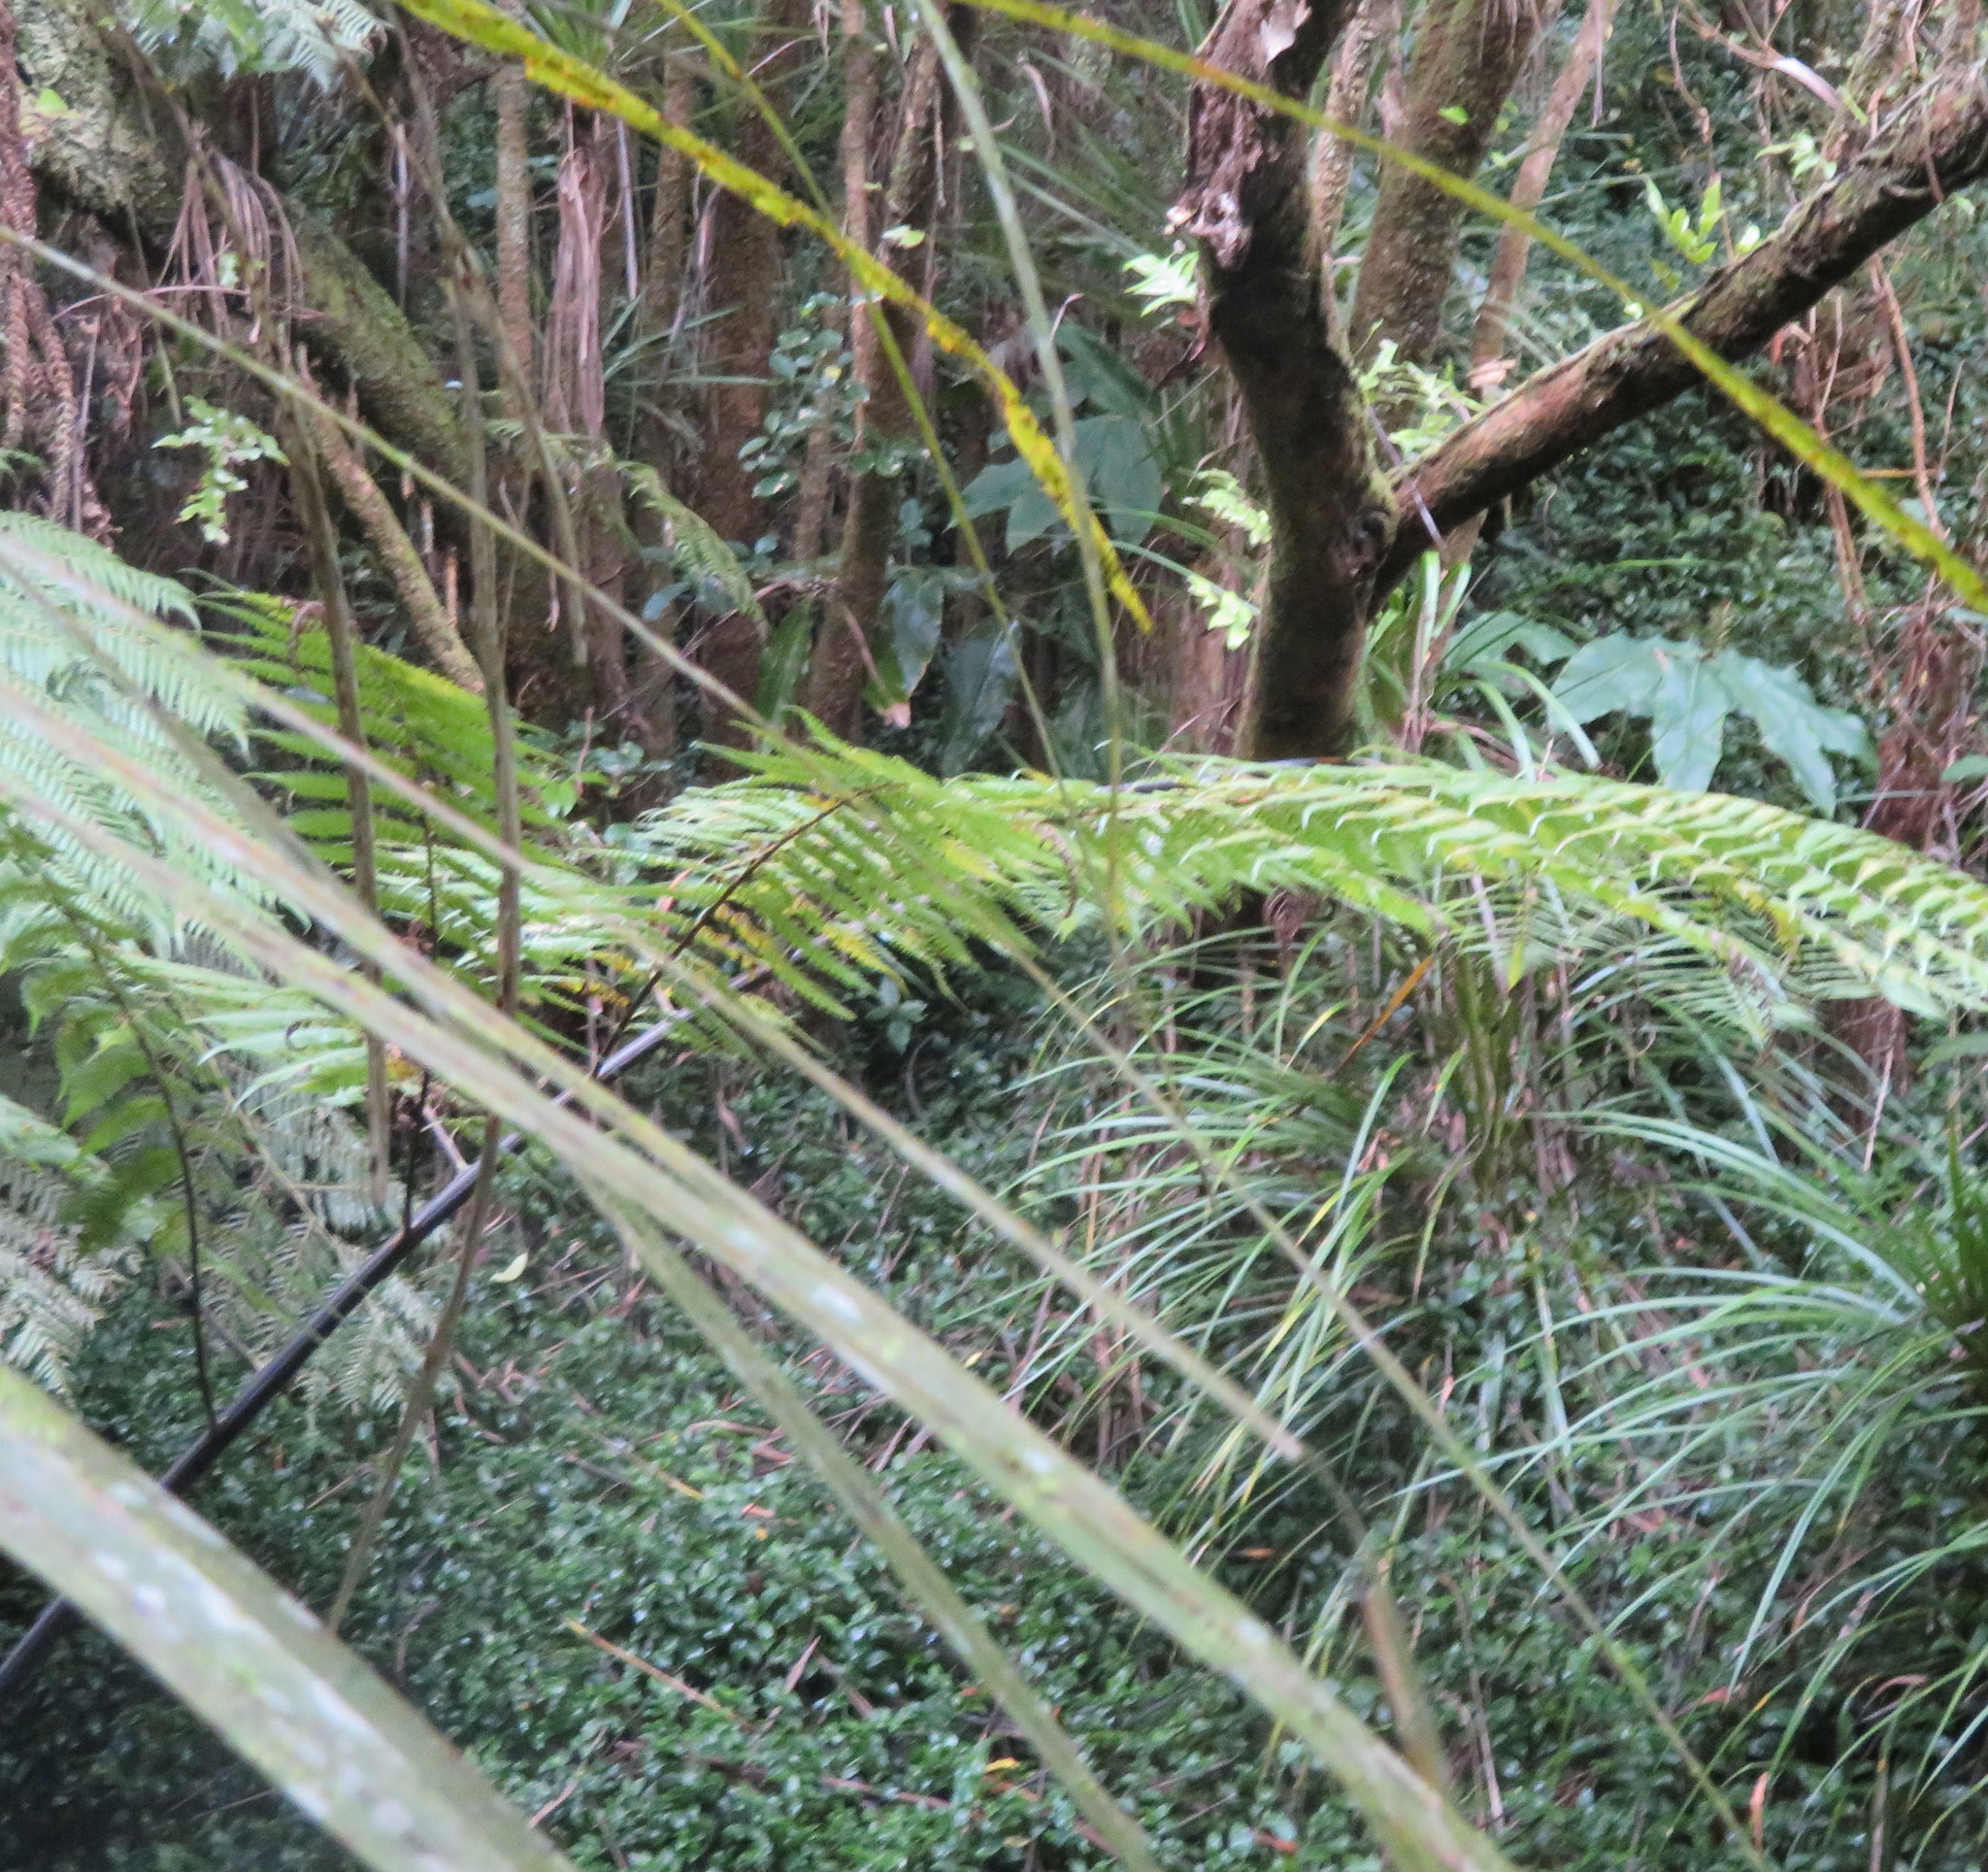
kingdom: Plantae
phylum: Tracheophyta
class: Liliopsida
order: Pandanales
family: Pandanaceae
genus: Freycinetia
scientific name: Freycinetia banksii
